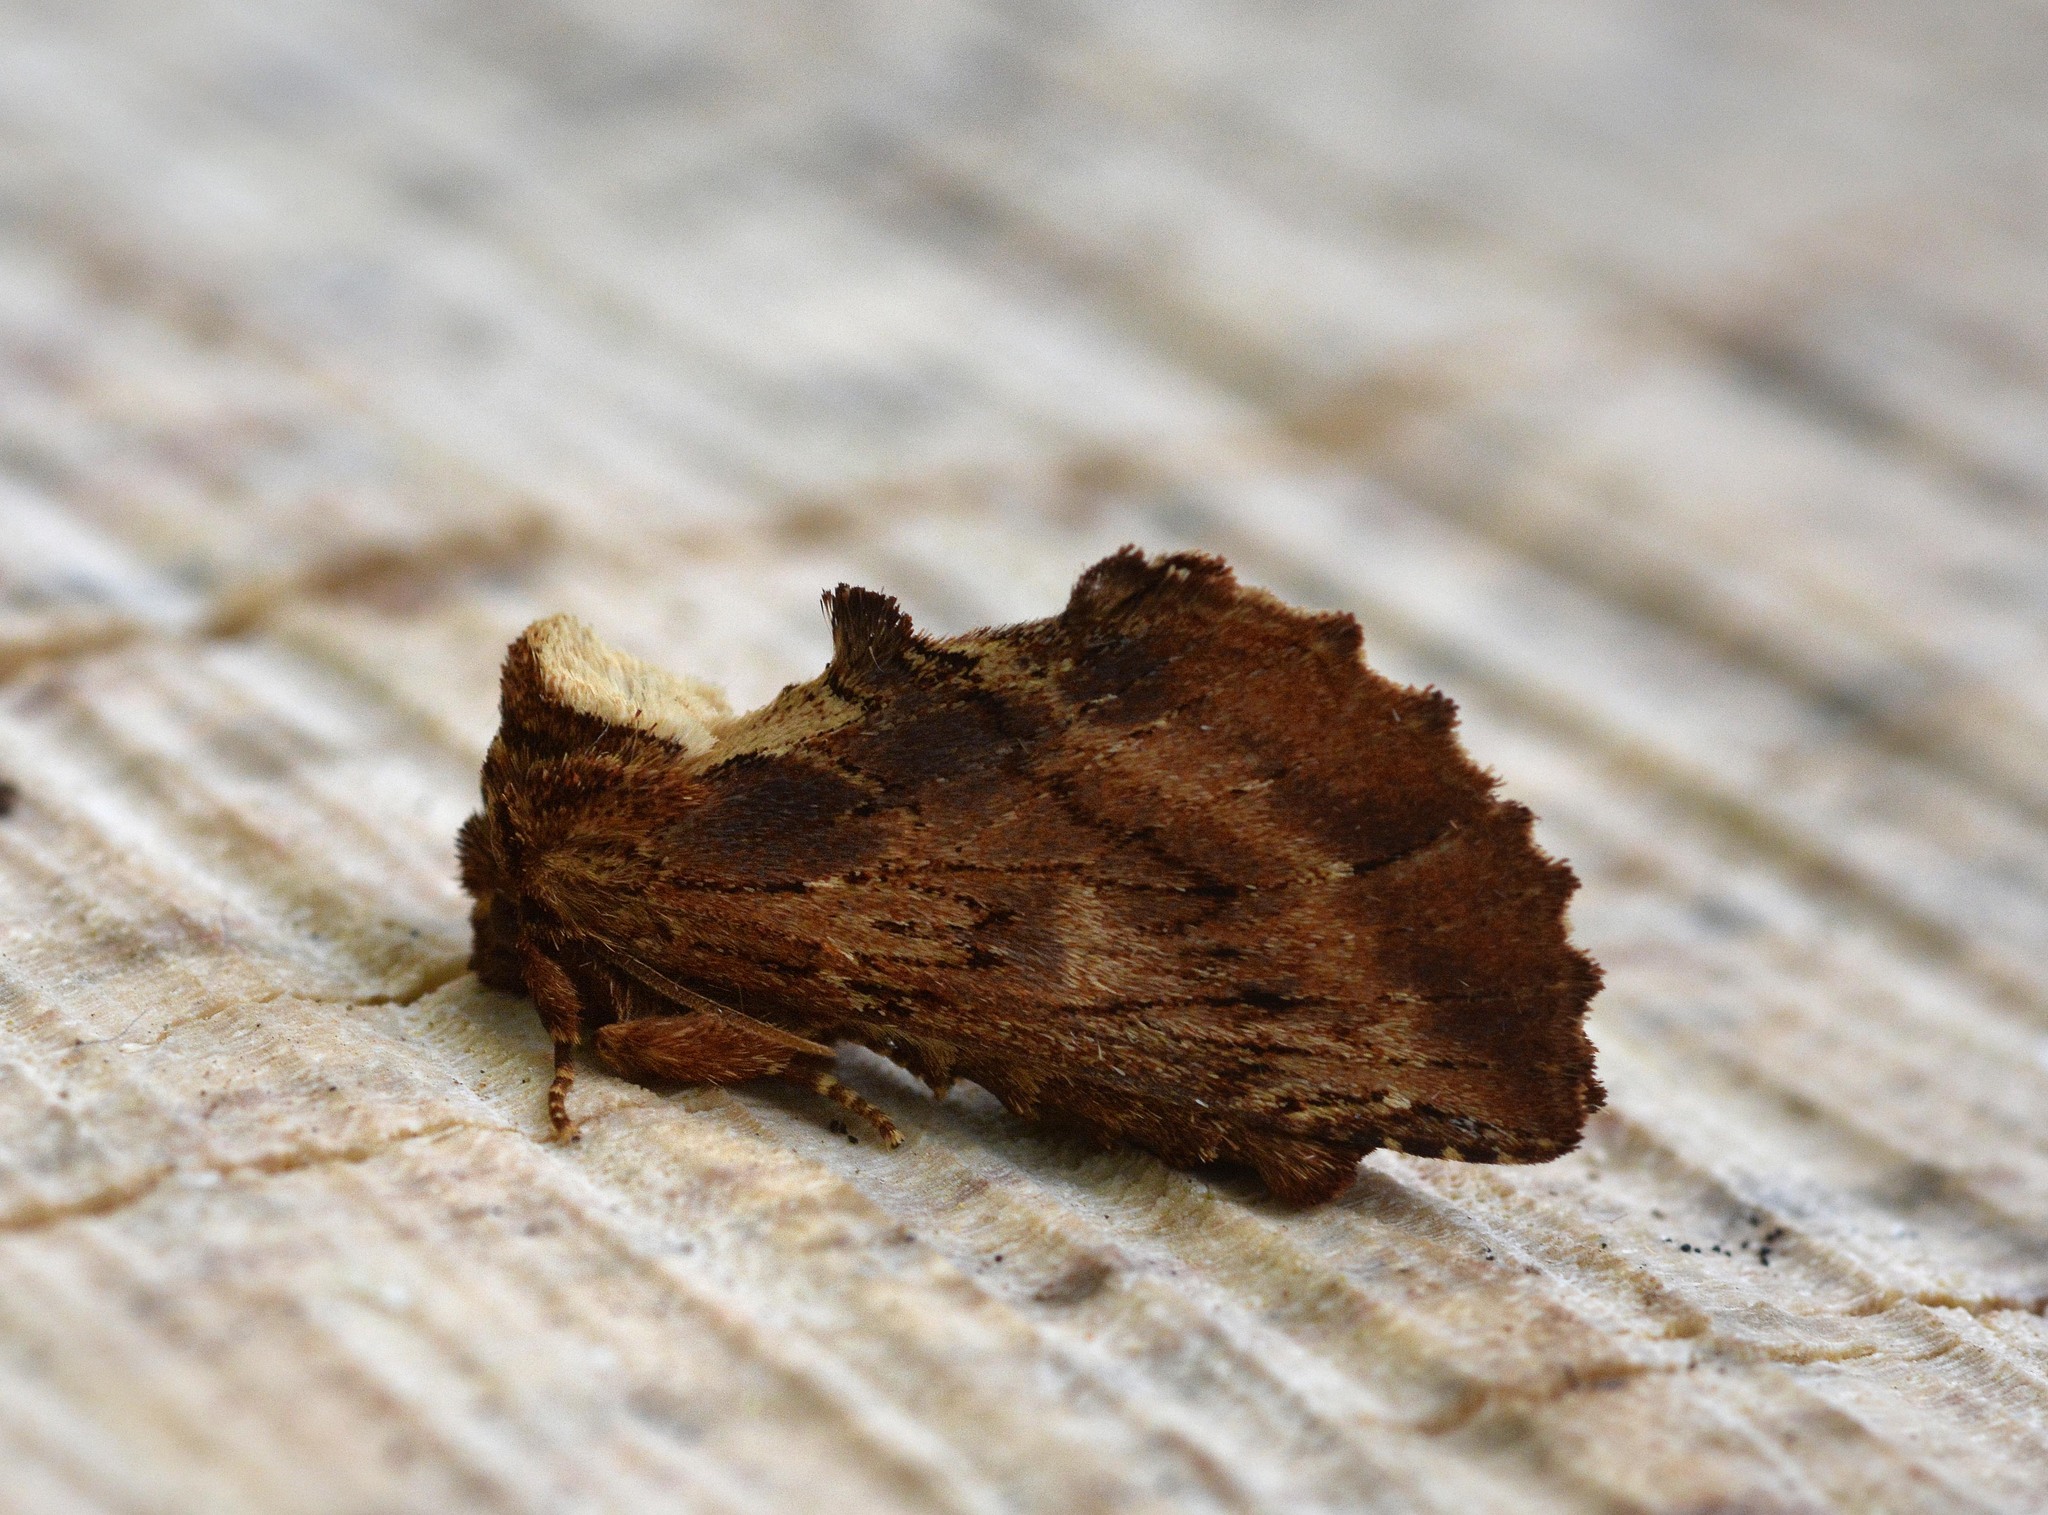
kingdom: Animalia
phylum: Arthropoda
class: Insecta
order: Lepidoptera
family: Notodontidae
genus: Ptilodon
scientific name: Ptilodon capucina
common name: Coxcomb prominent
